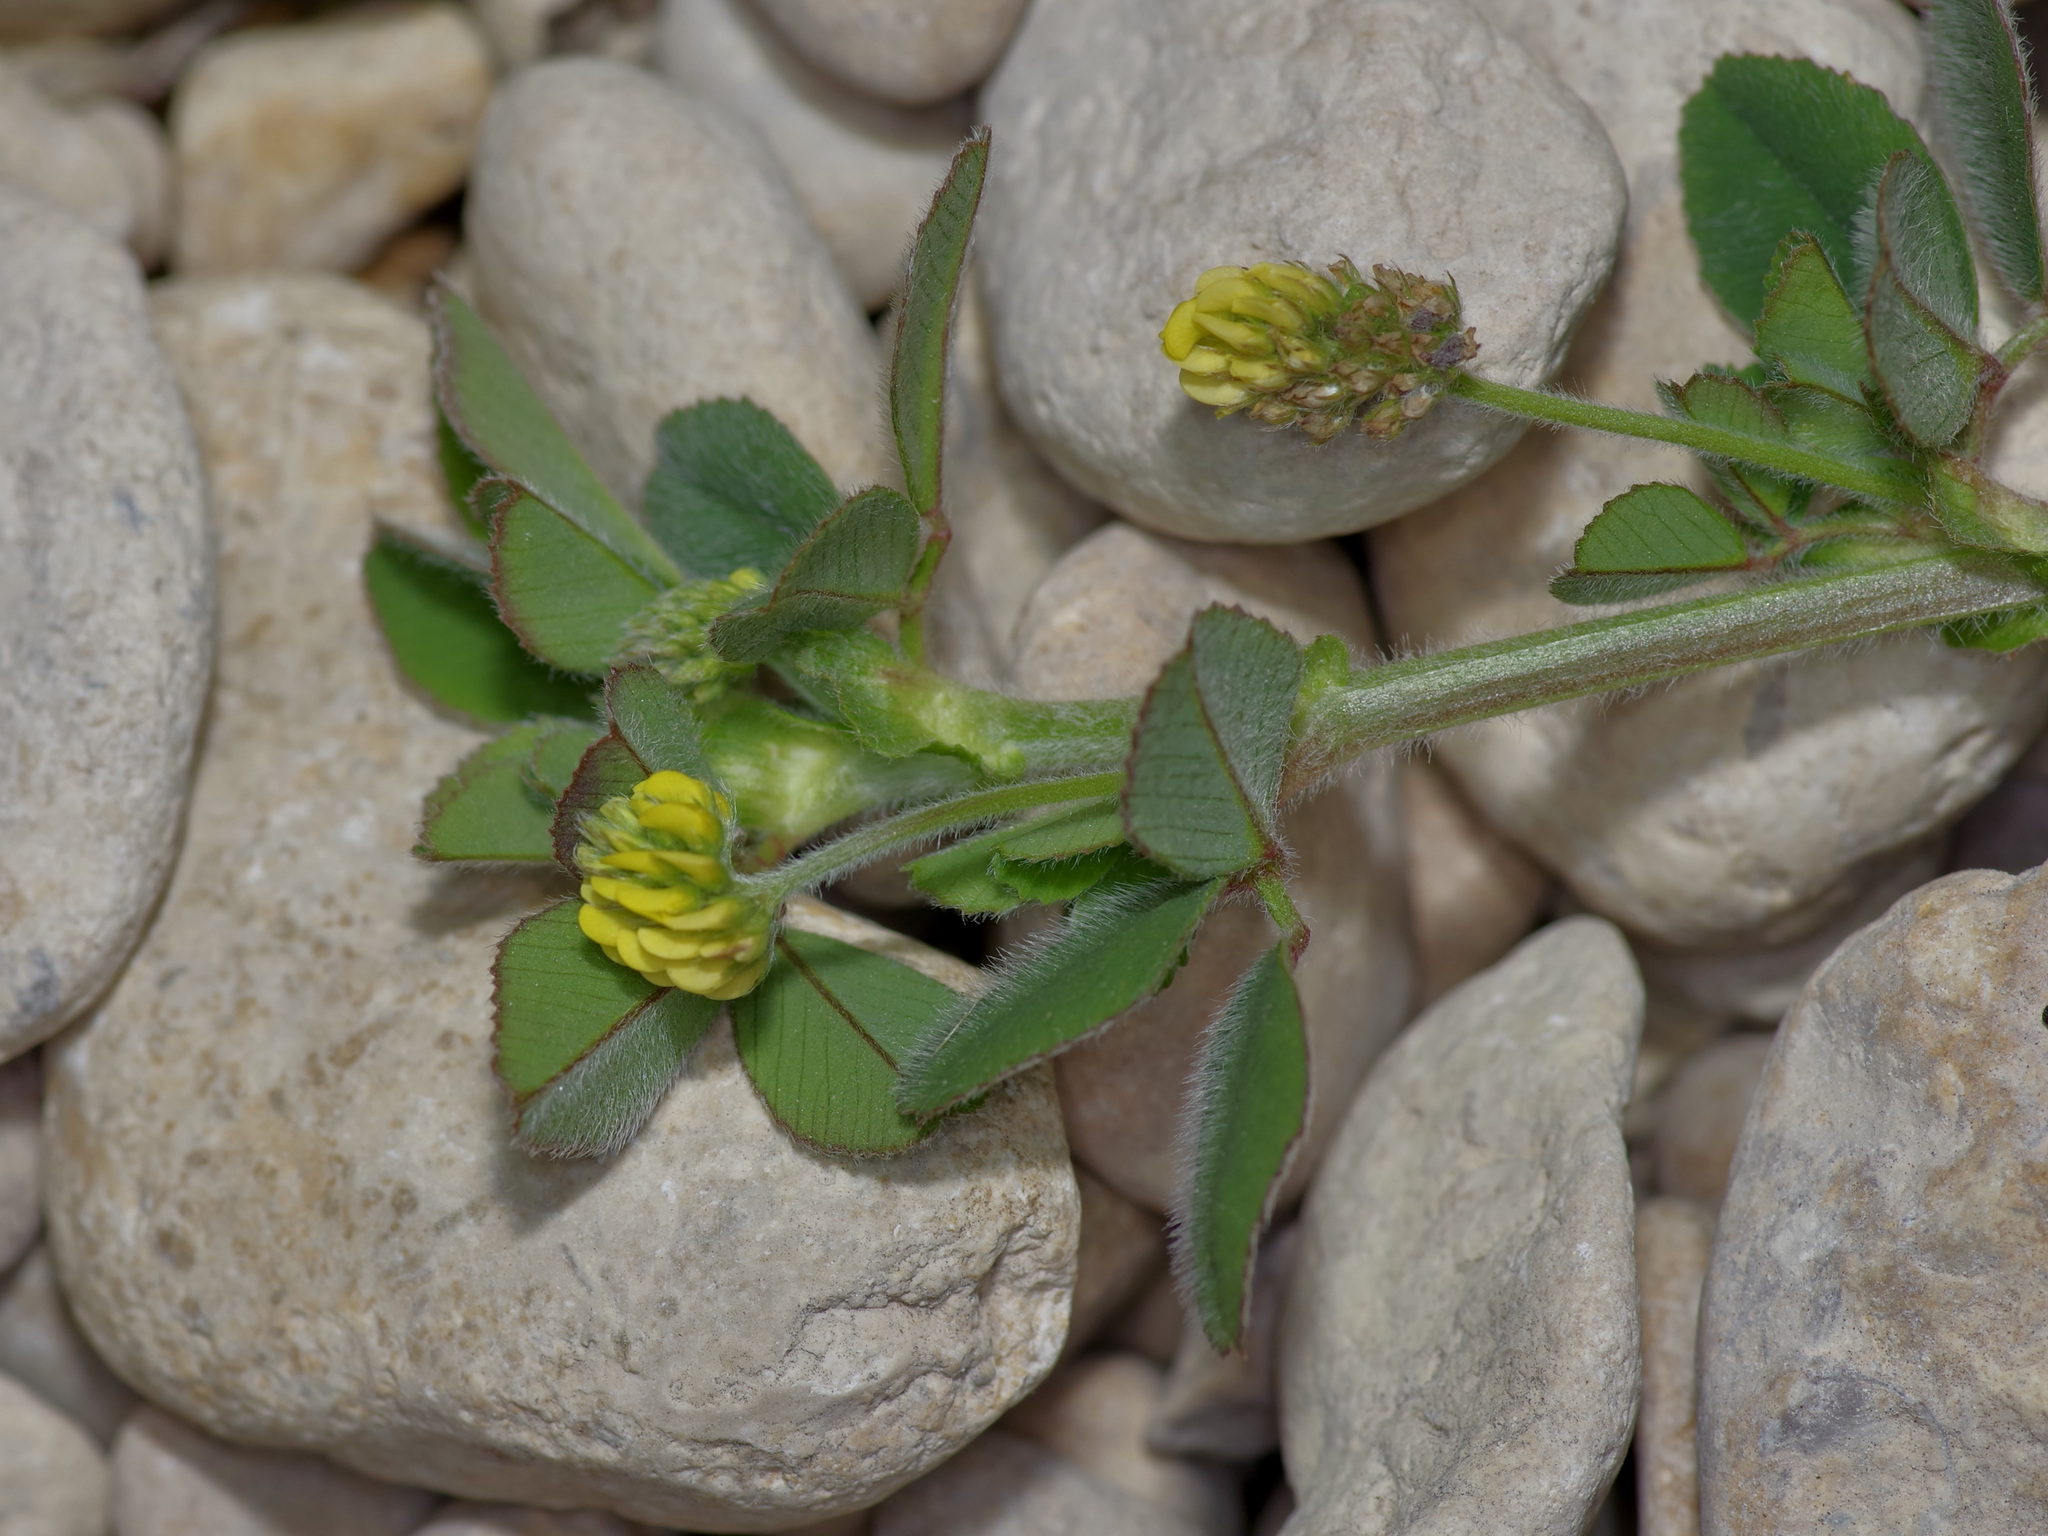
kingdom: Plantae
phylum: Tracheophyta
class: Magnoliopsida
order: Fabales
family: Fabaceae
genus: Medicago
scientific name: Medicago lupulina
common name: Black medick
